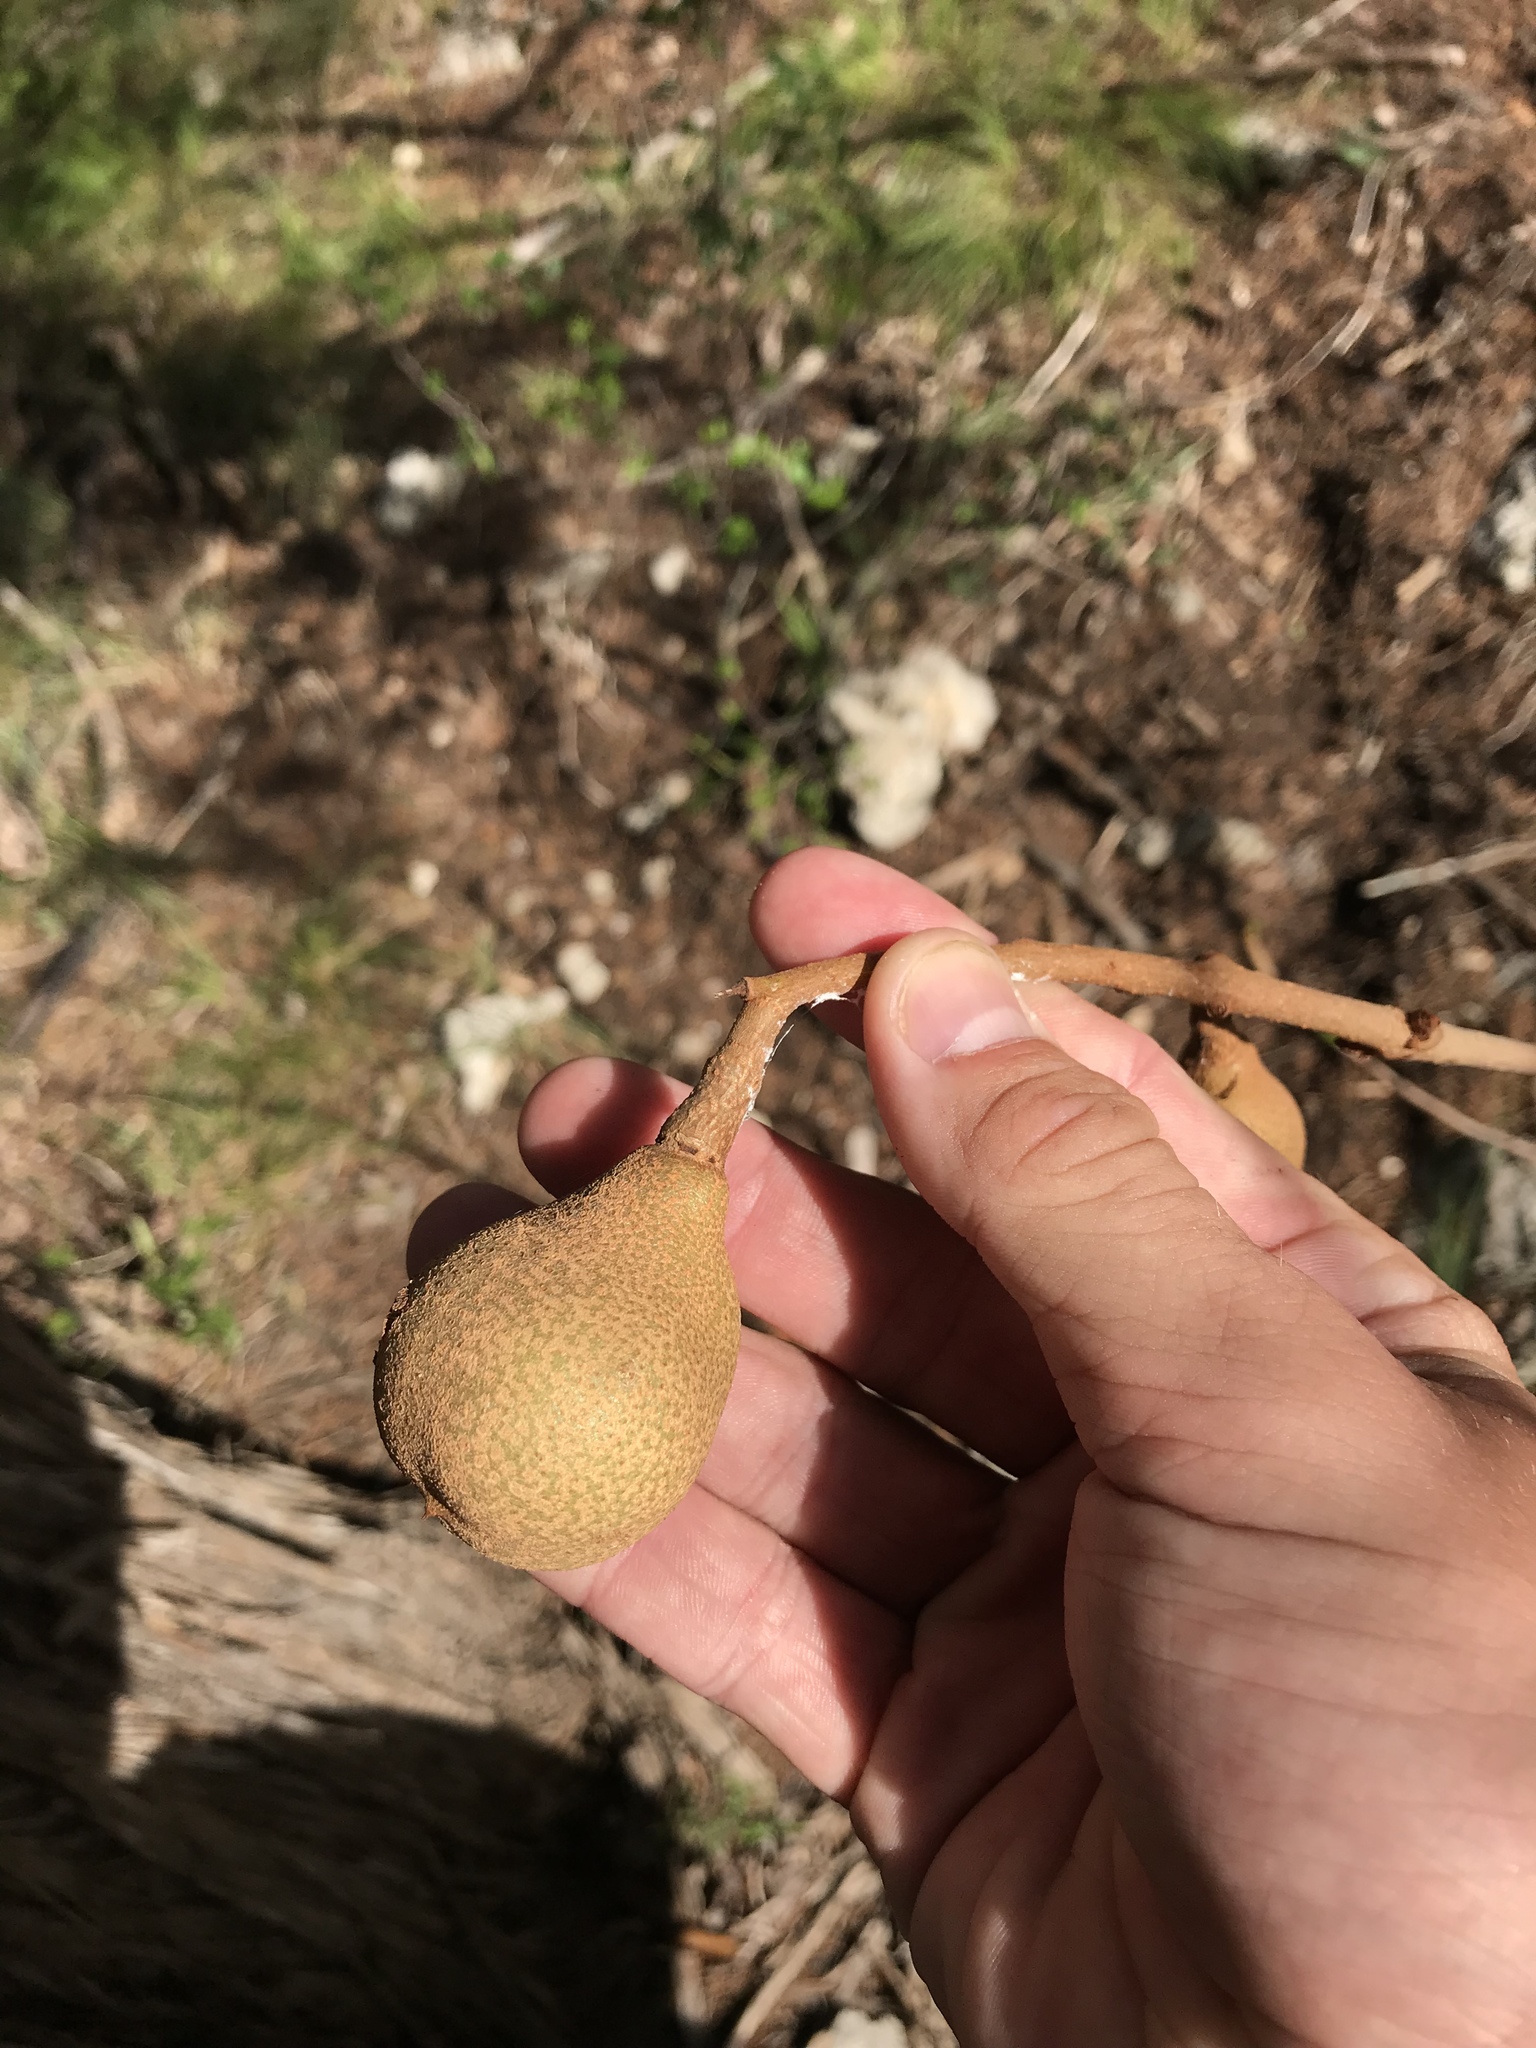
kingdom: Plantae
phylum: Tracheophyta
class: Magnoliopsida
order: Sapindales
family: Sapindaceae
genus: Aesculus
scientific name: Aesculus pavia
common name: Red buckeye
